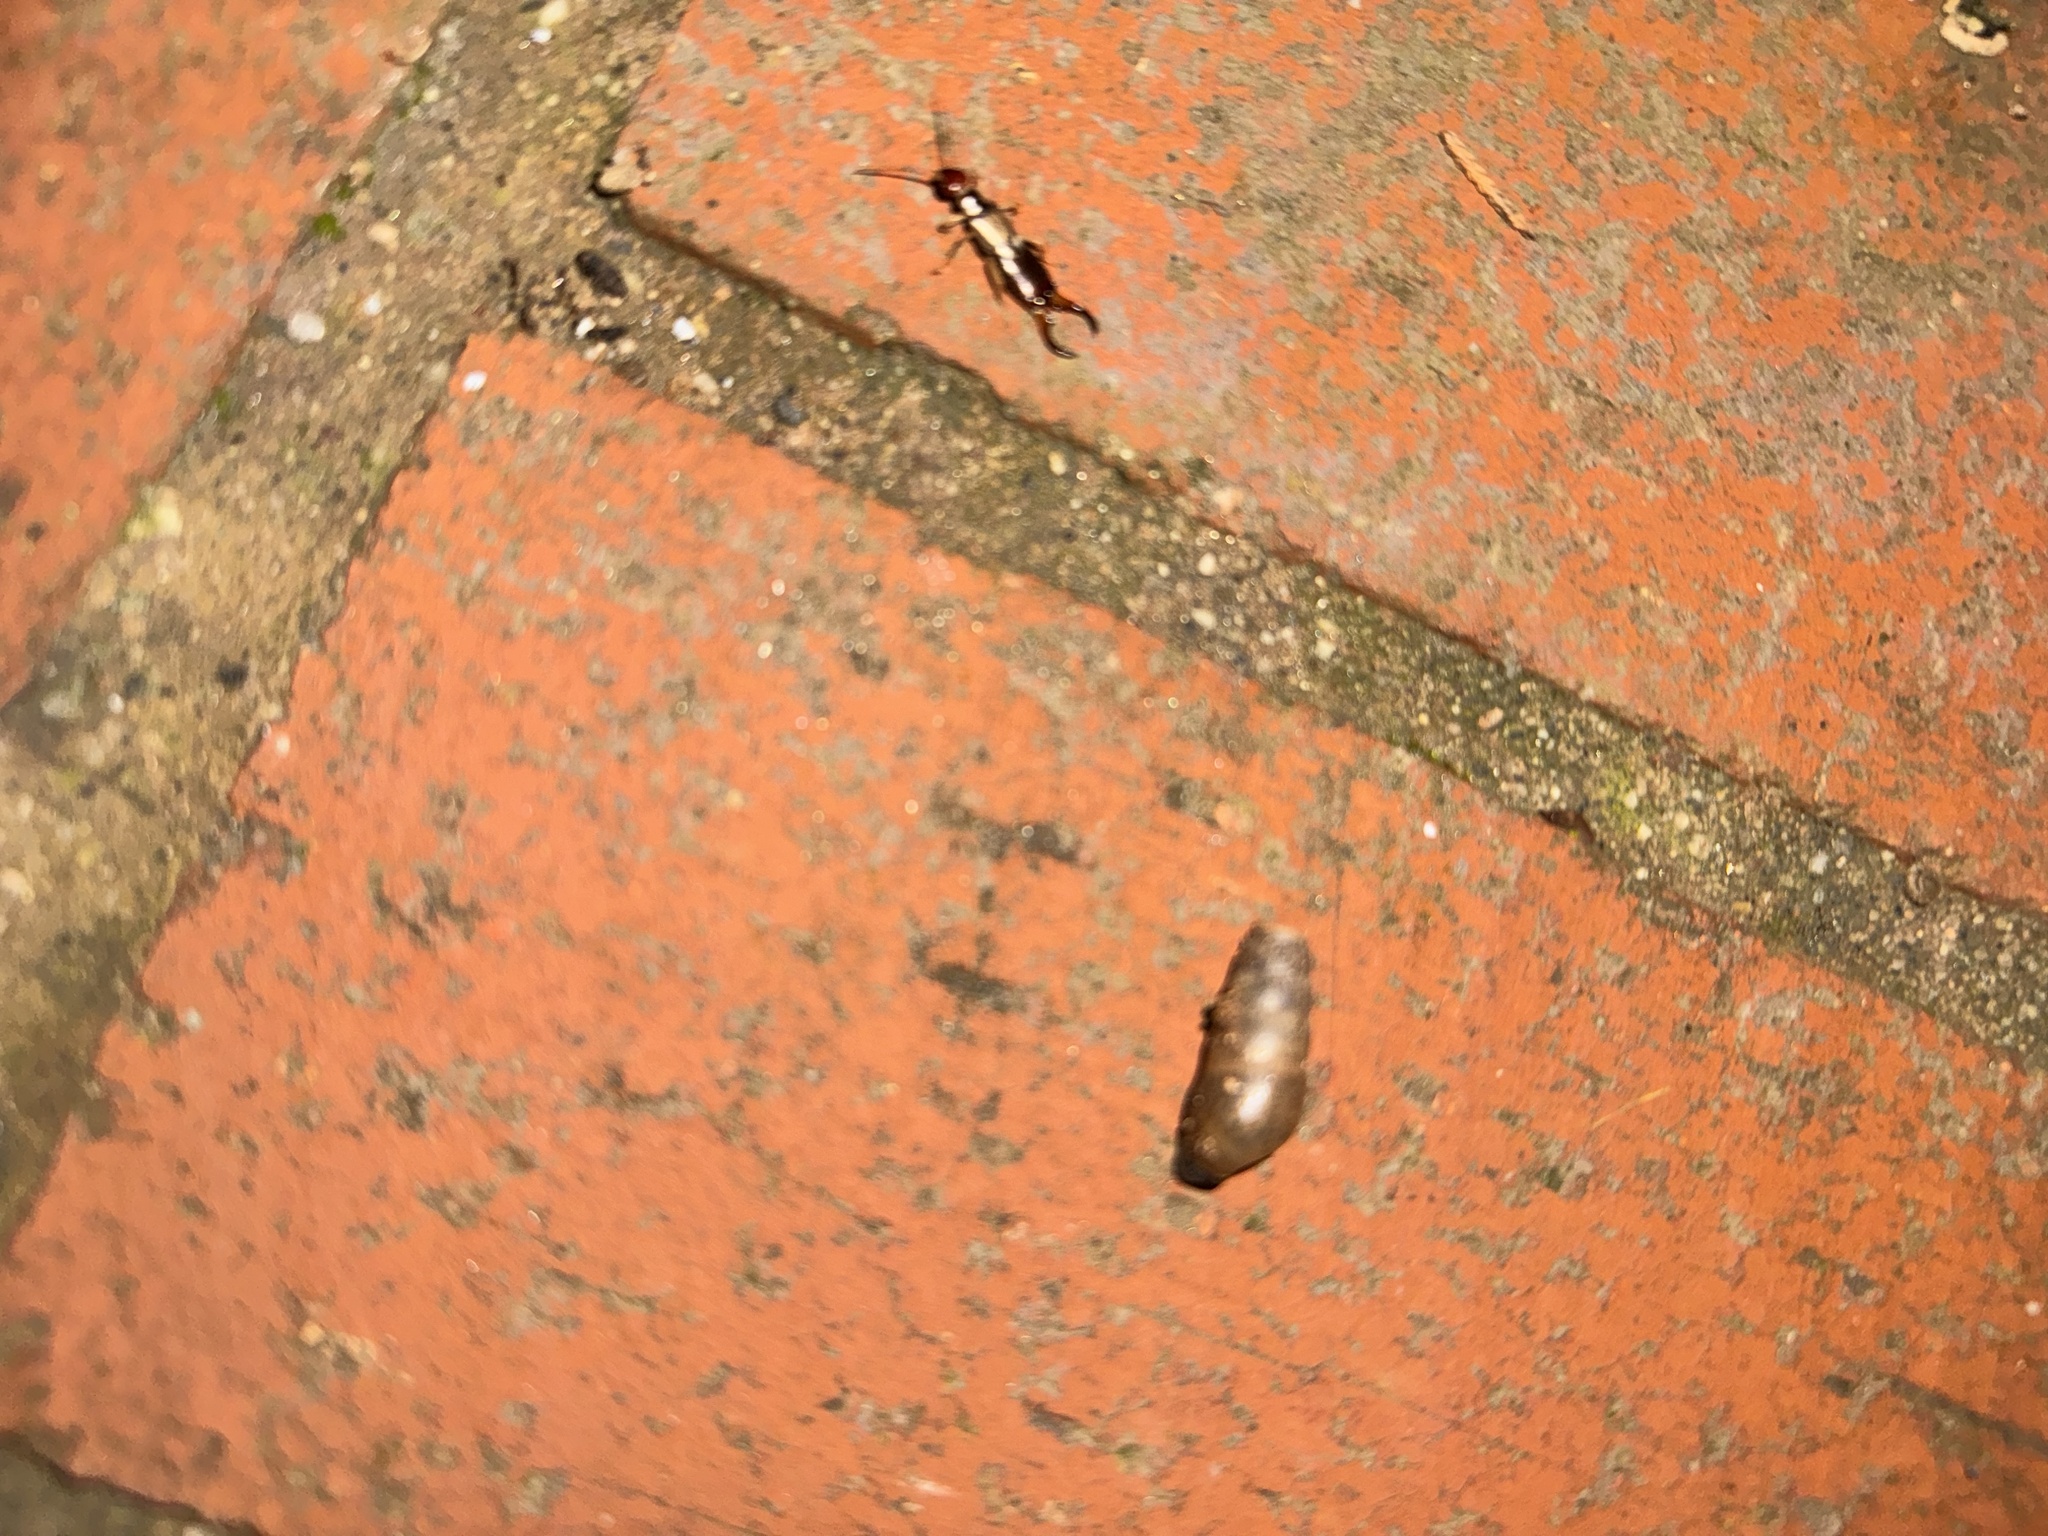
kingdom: Animalia
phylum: Mollusca
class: Gastropoda
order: Stylommatophora
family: Achatinidae
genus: Rumina
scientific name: Rumina decollata
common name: Decollate snail
